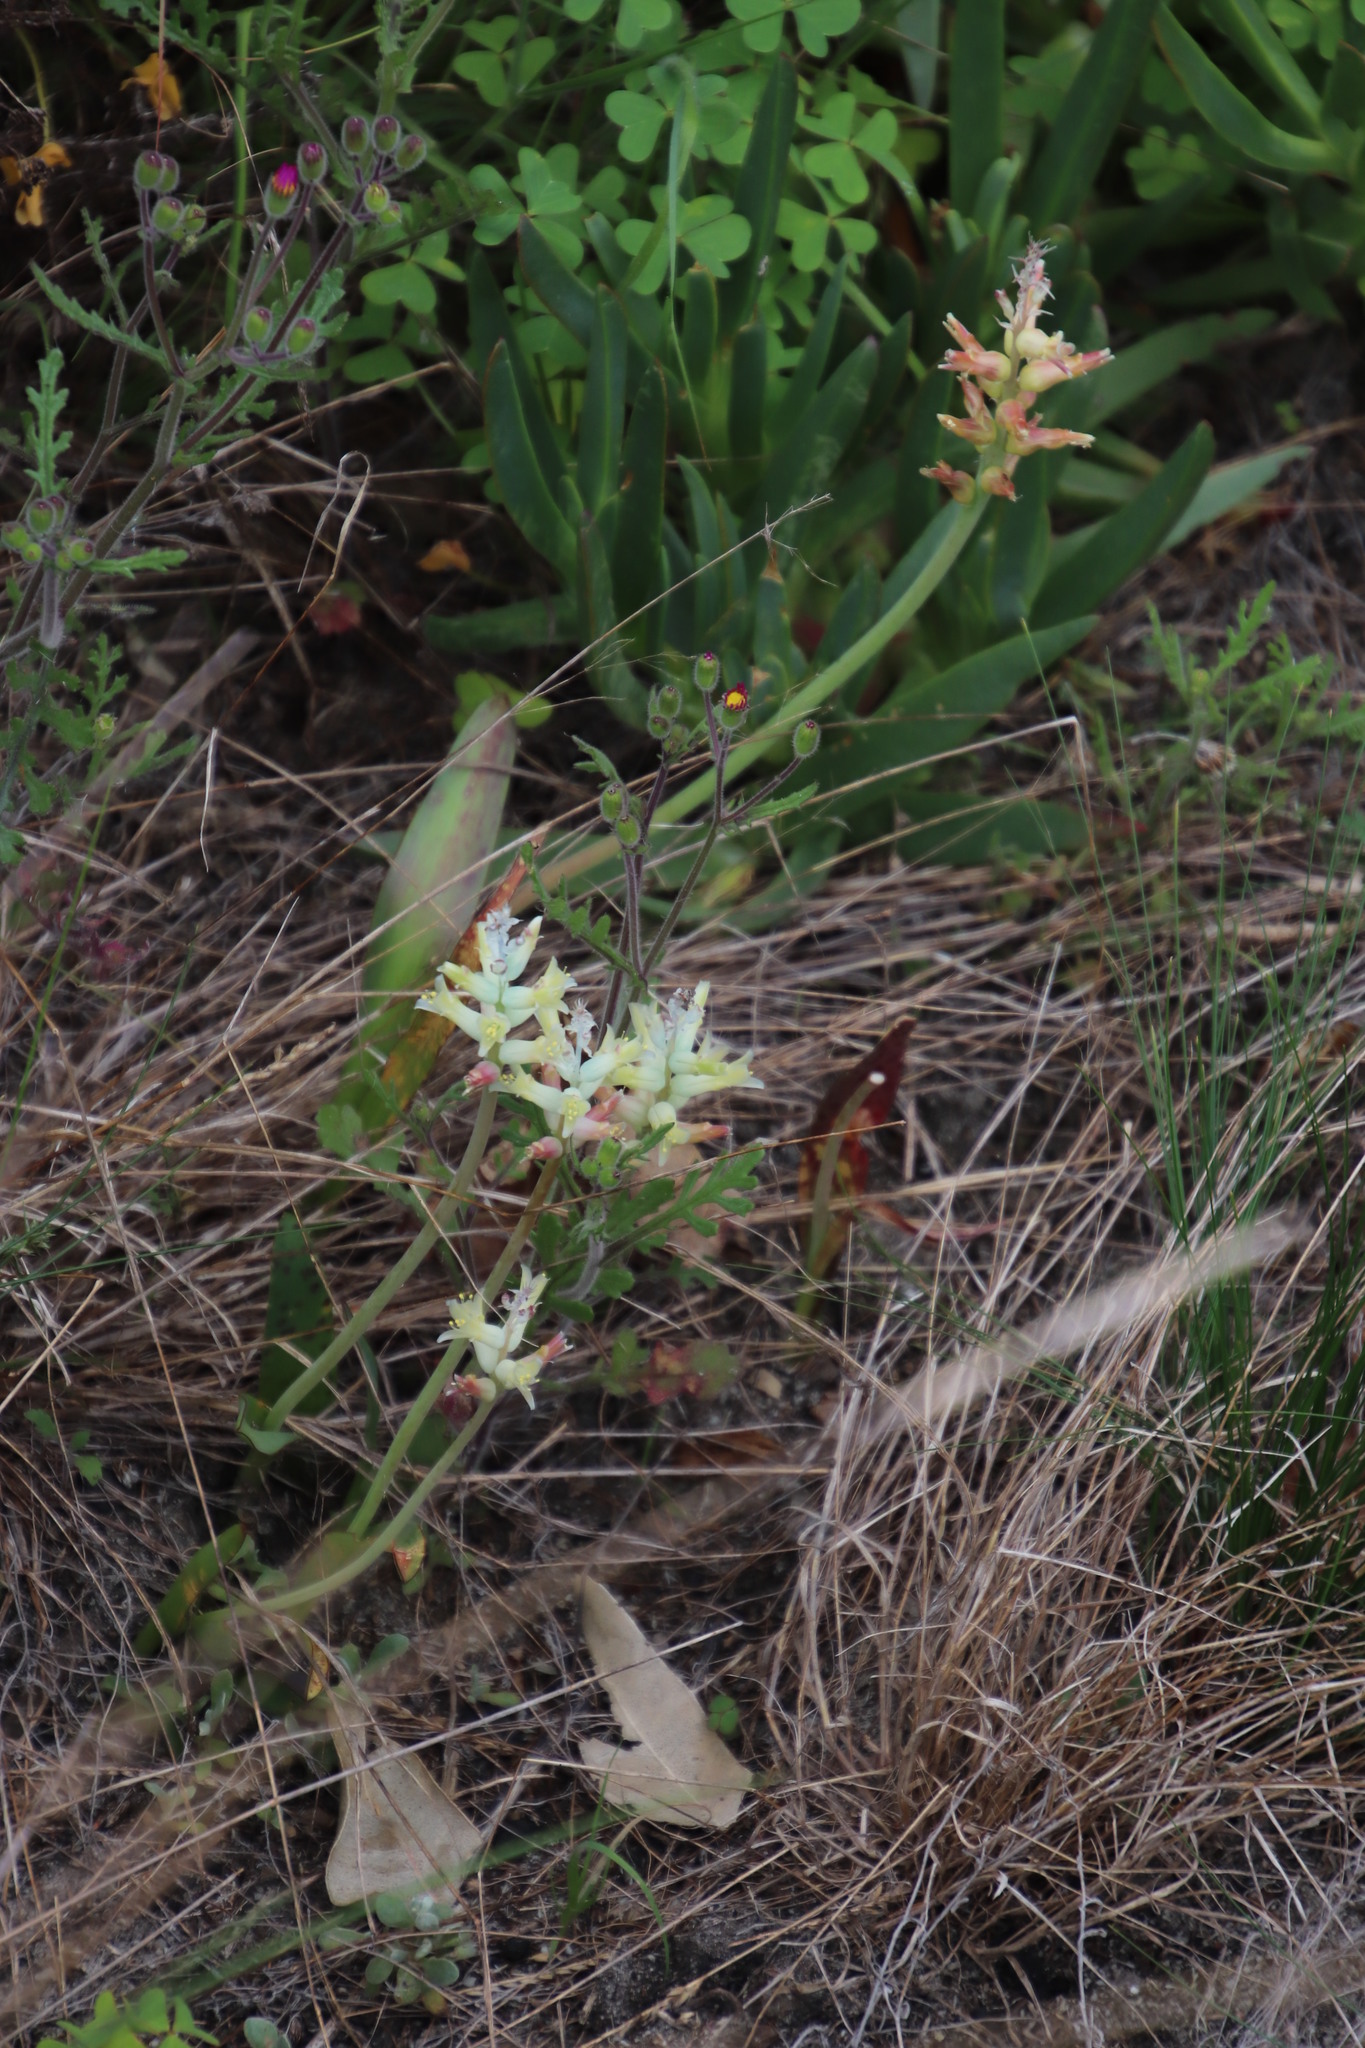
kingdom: Plantae
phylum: Tracheophyta
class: Liliopsida
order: Asparagales
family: Asparagaceae
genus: Lachenalia
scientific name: Lachenalia orchioides
